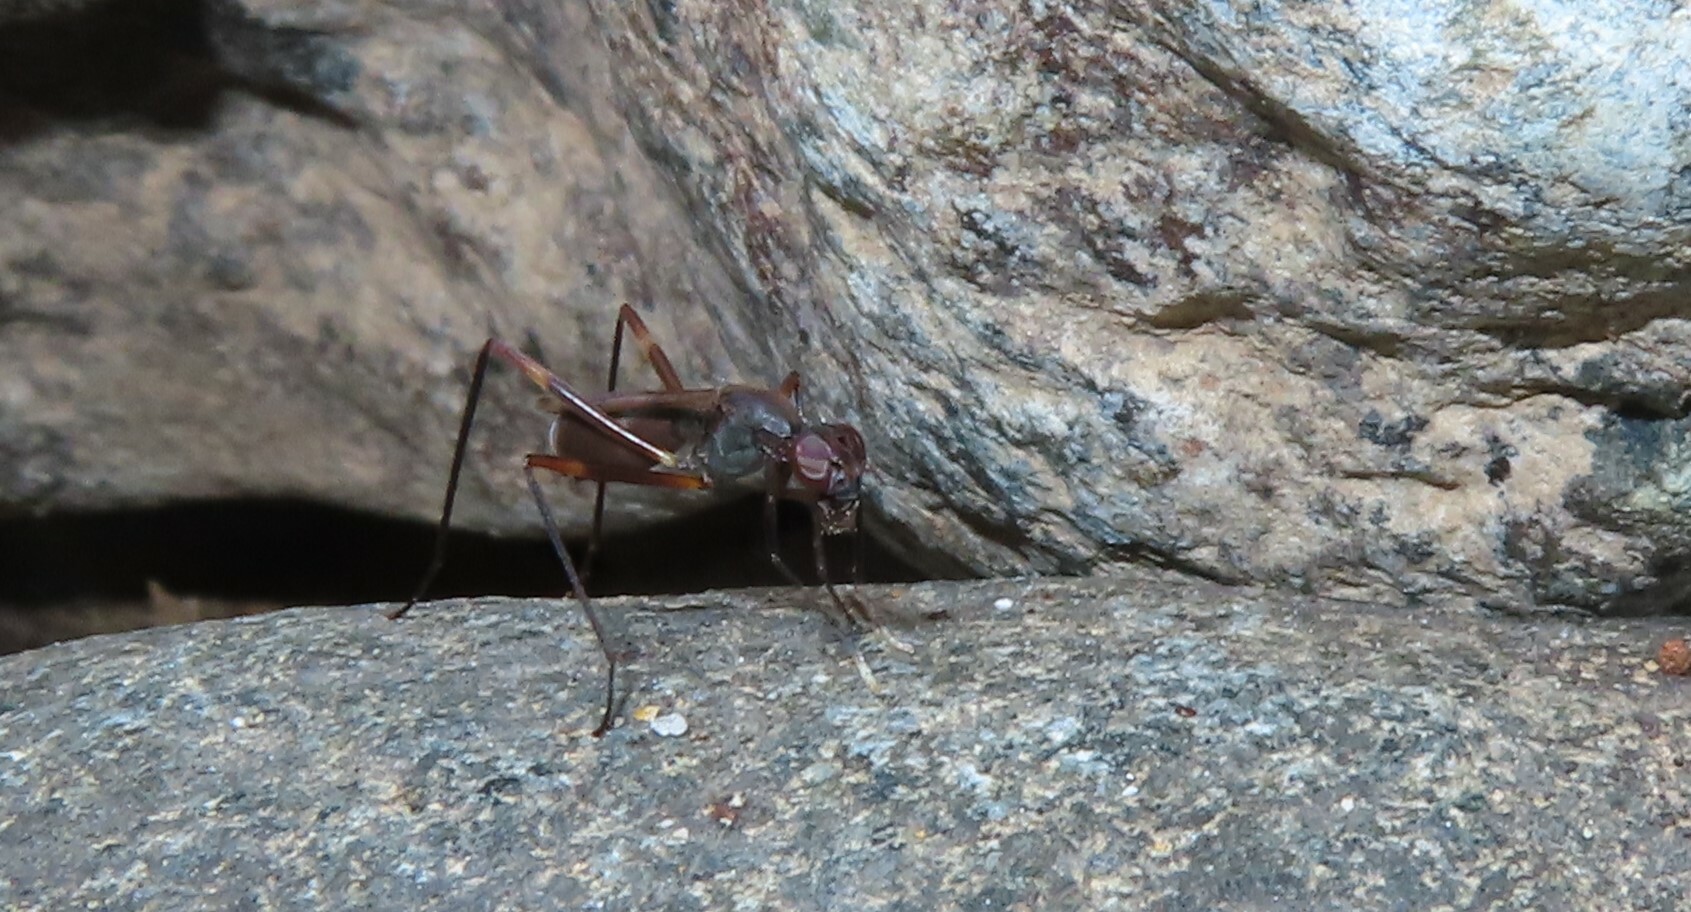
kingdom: Animalia
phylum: Arthropoda
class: Insecta
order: Diptera
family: Micropezidae
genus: Taeniaptera
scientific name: Taeniaptera trivittata
